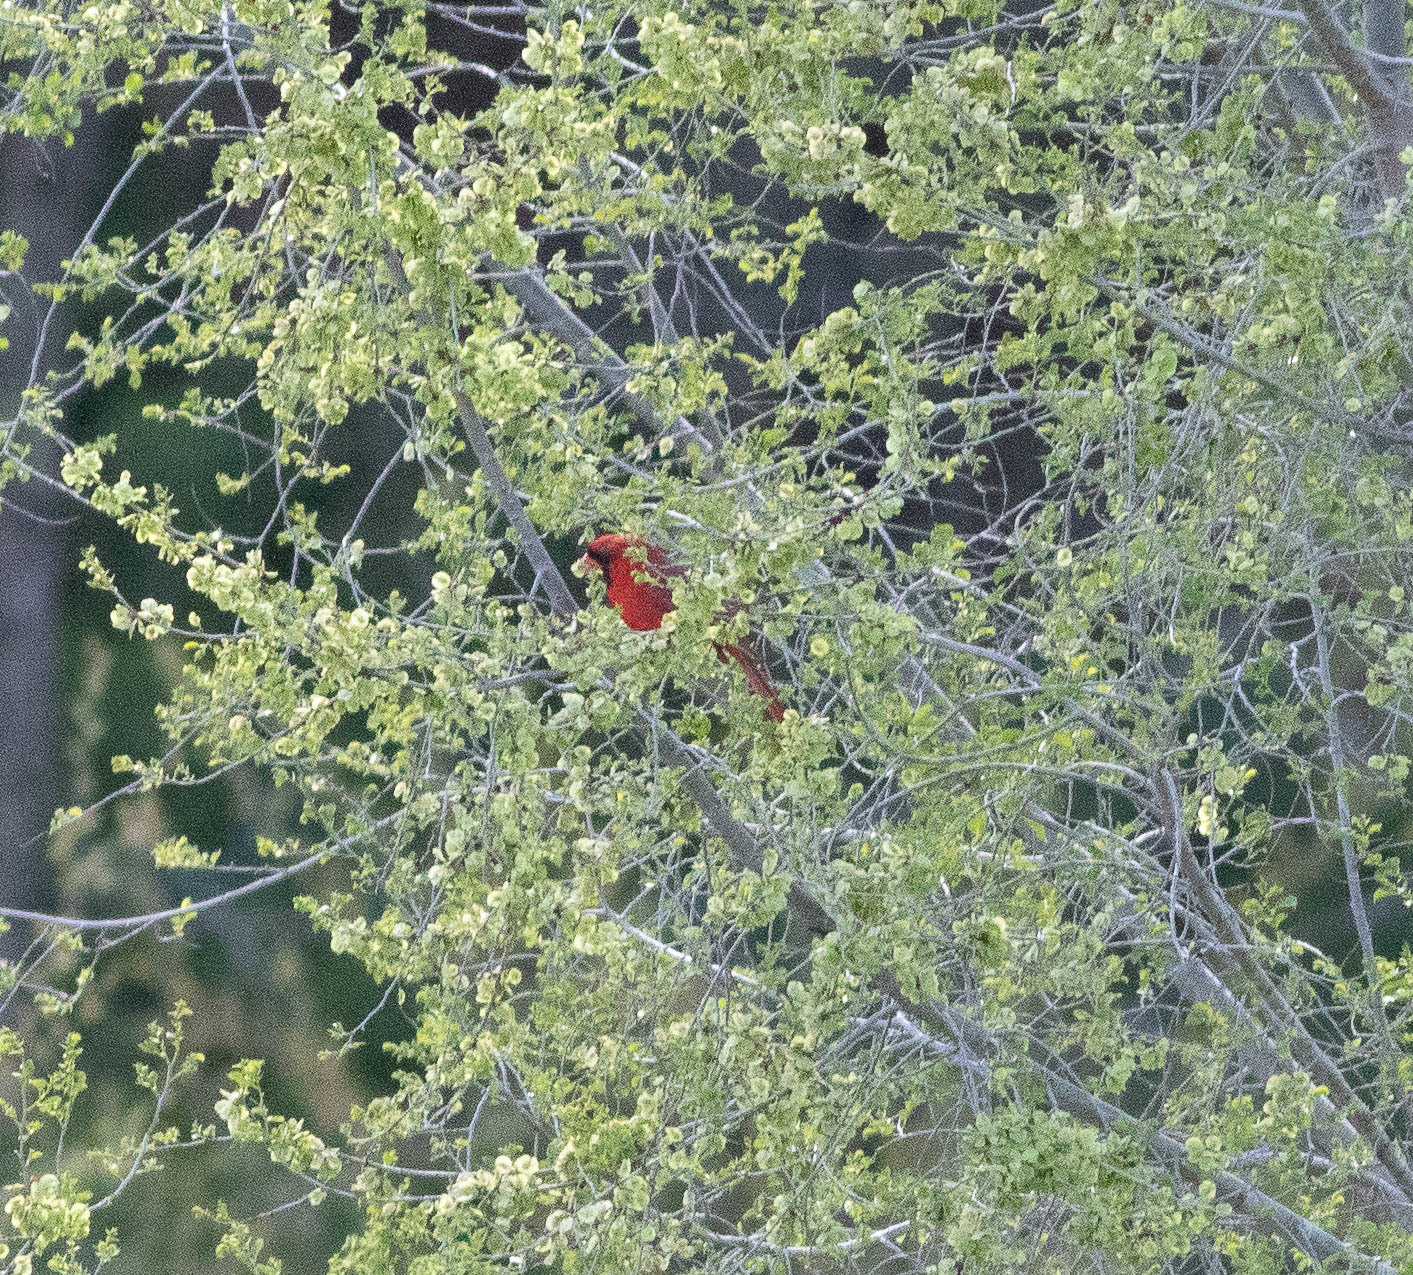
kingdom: Animalia
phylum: Chordata
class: Aves
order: Passeriformes
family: Cardinalidae
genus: Cardinalis
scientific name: Cardinalis cardinalis
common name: Northern cardinal
